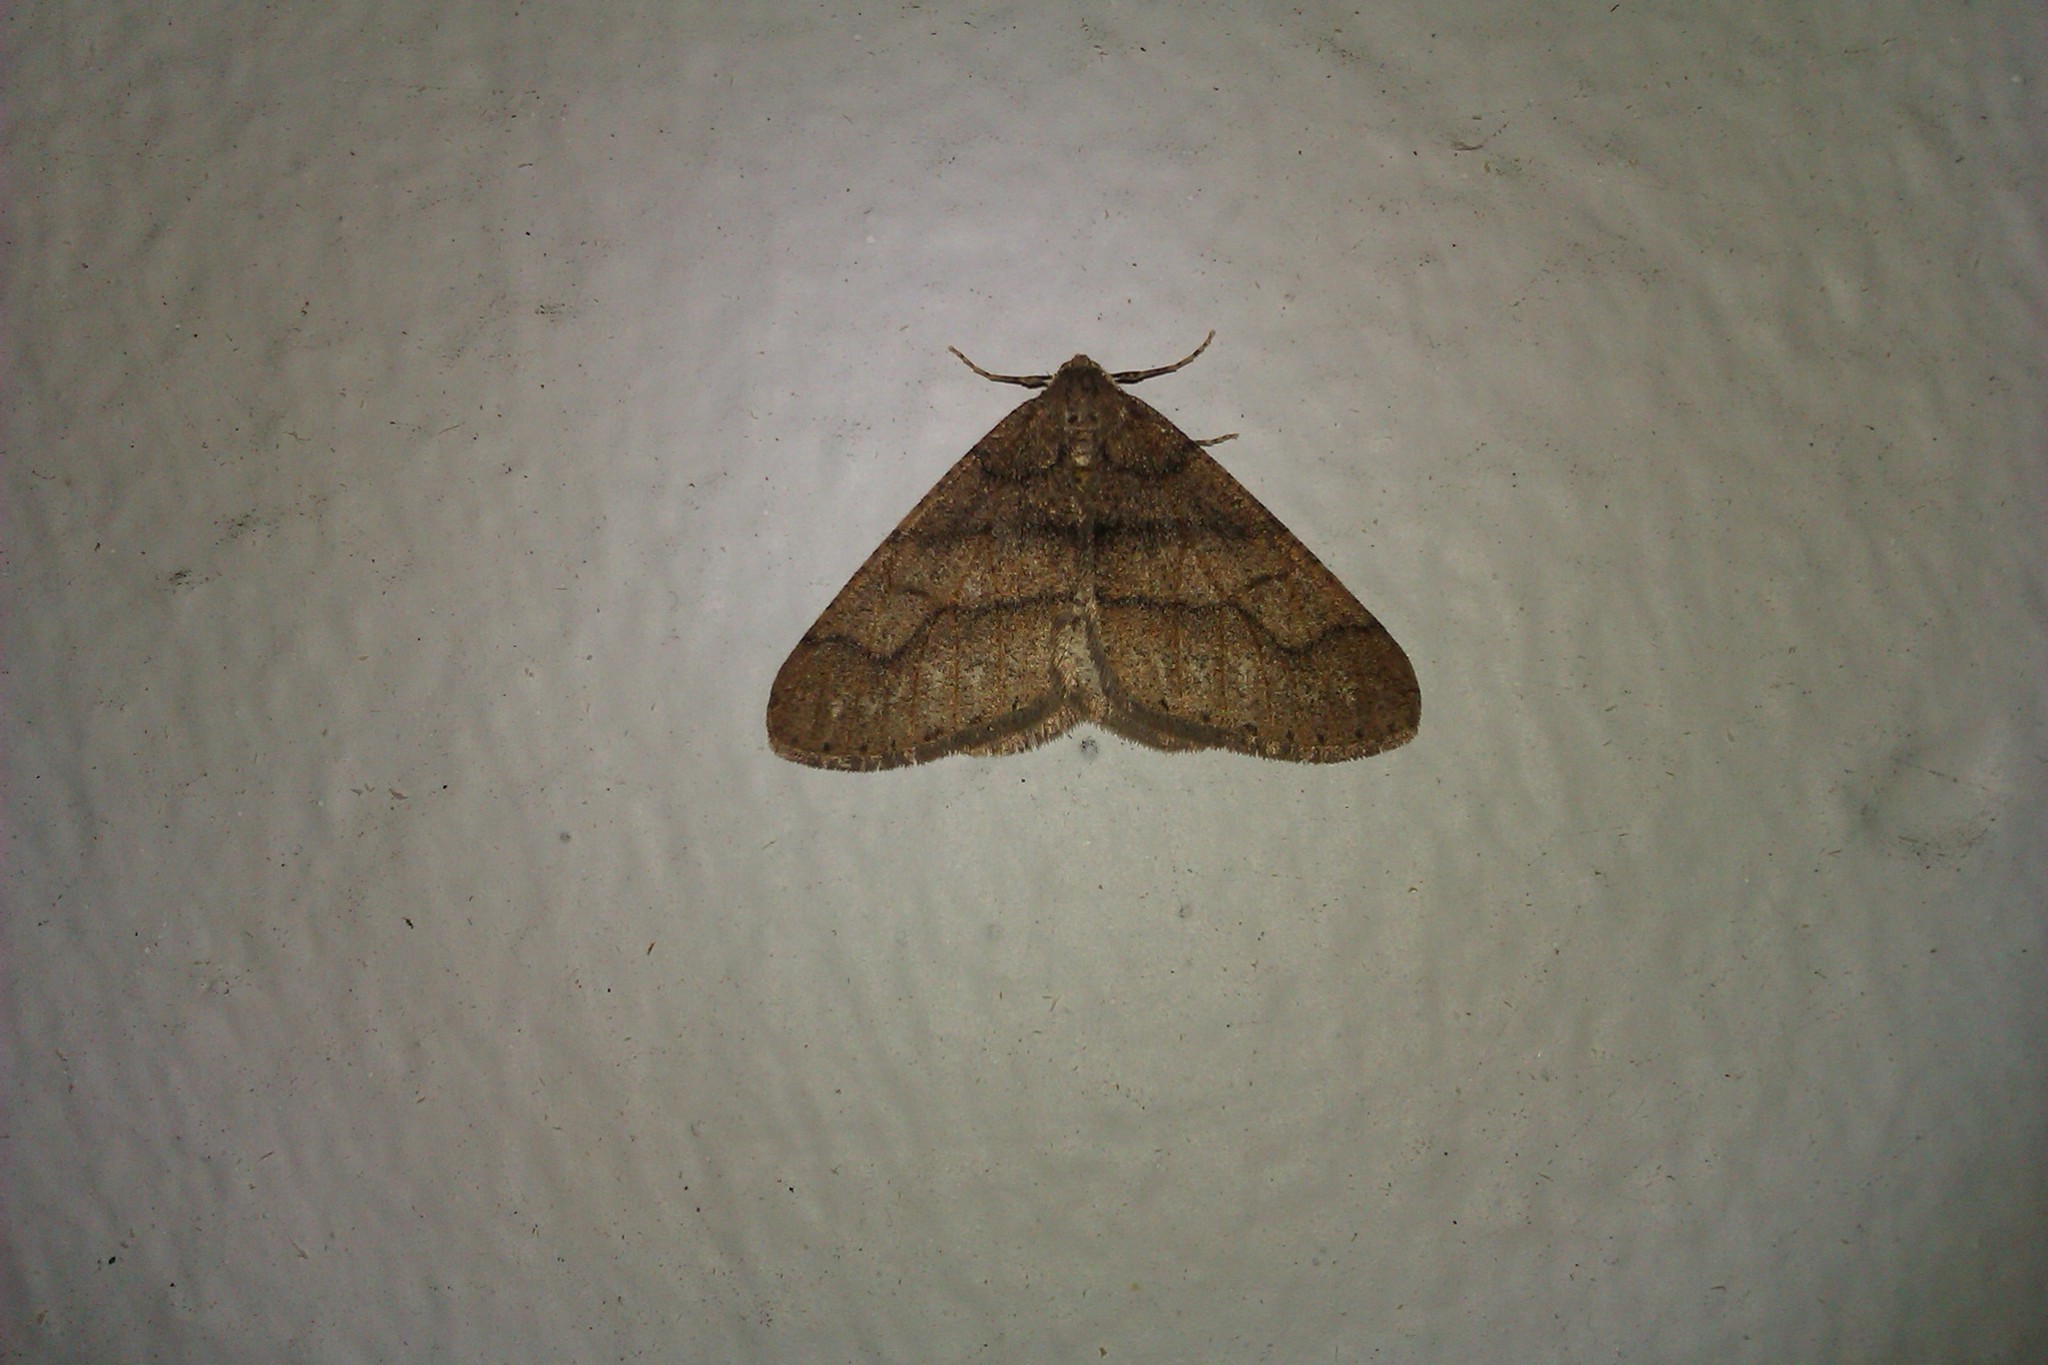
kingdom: Animalia
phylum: Arthropoda
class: Insecta
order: Lepidoptera
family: Geometridae
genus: Agriopis
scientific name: Agriopis marginaria
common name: Dotted border
